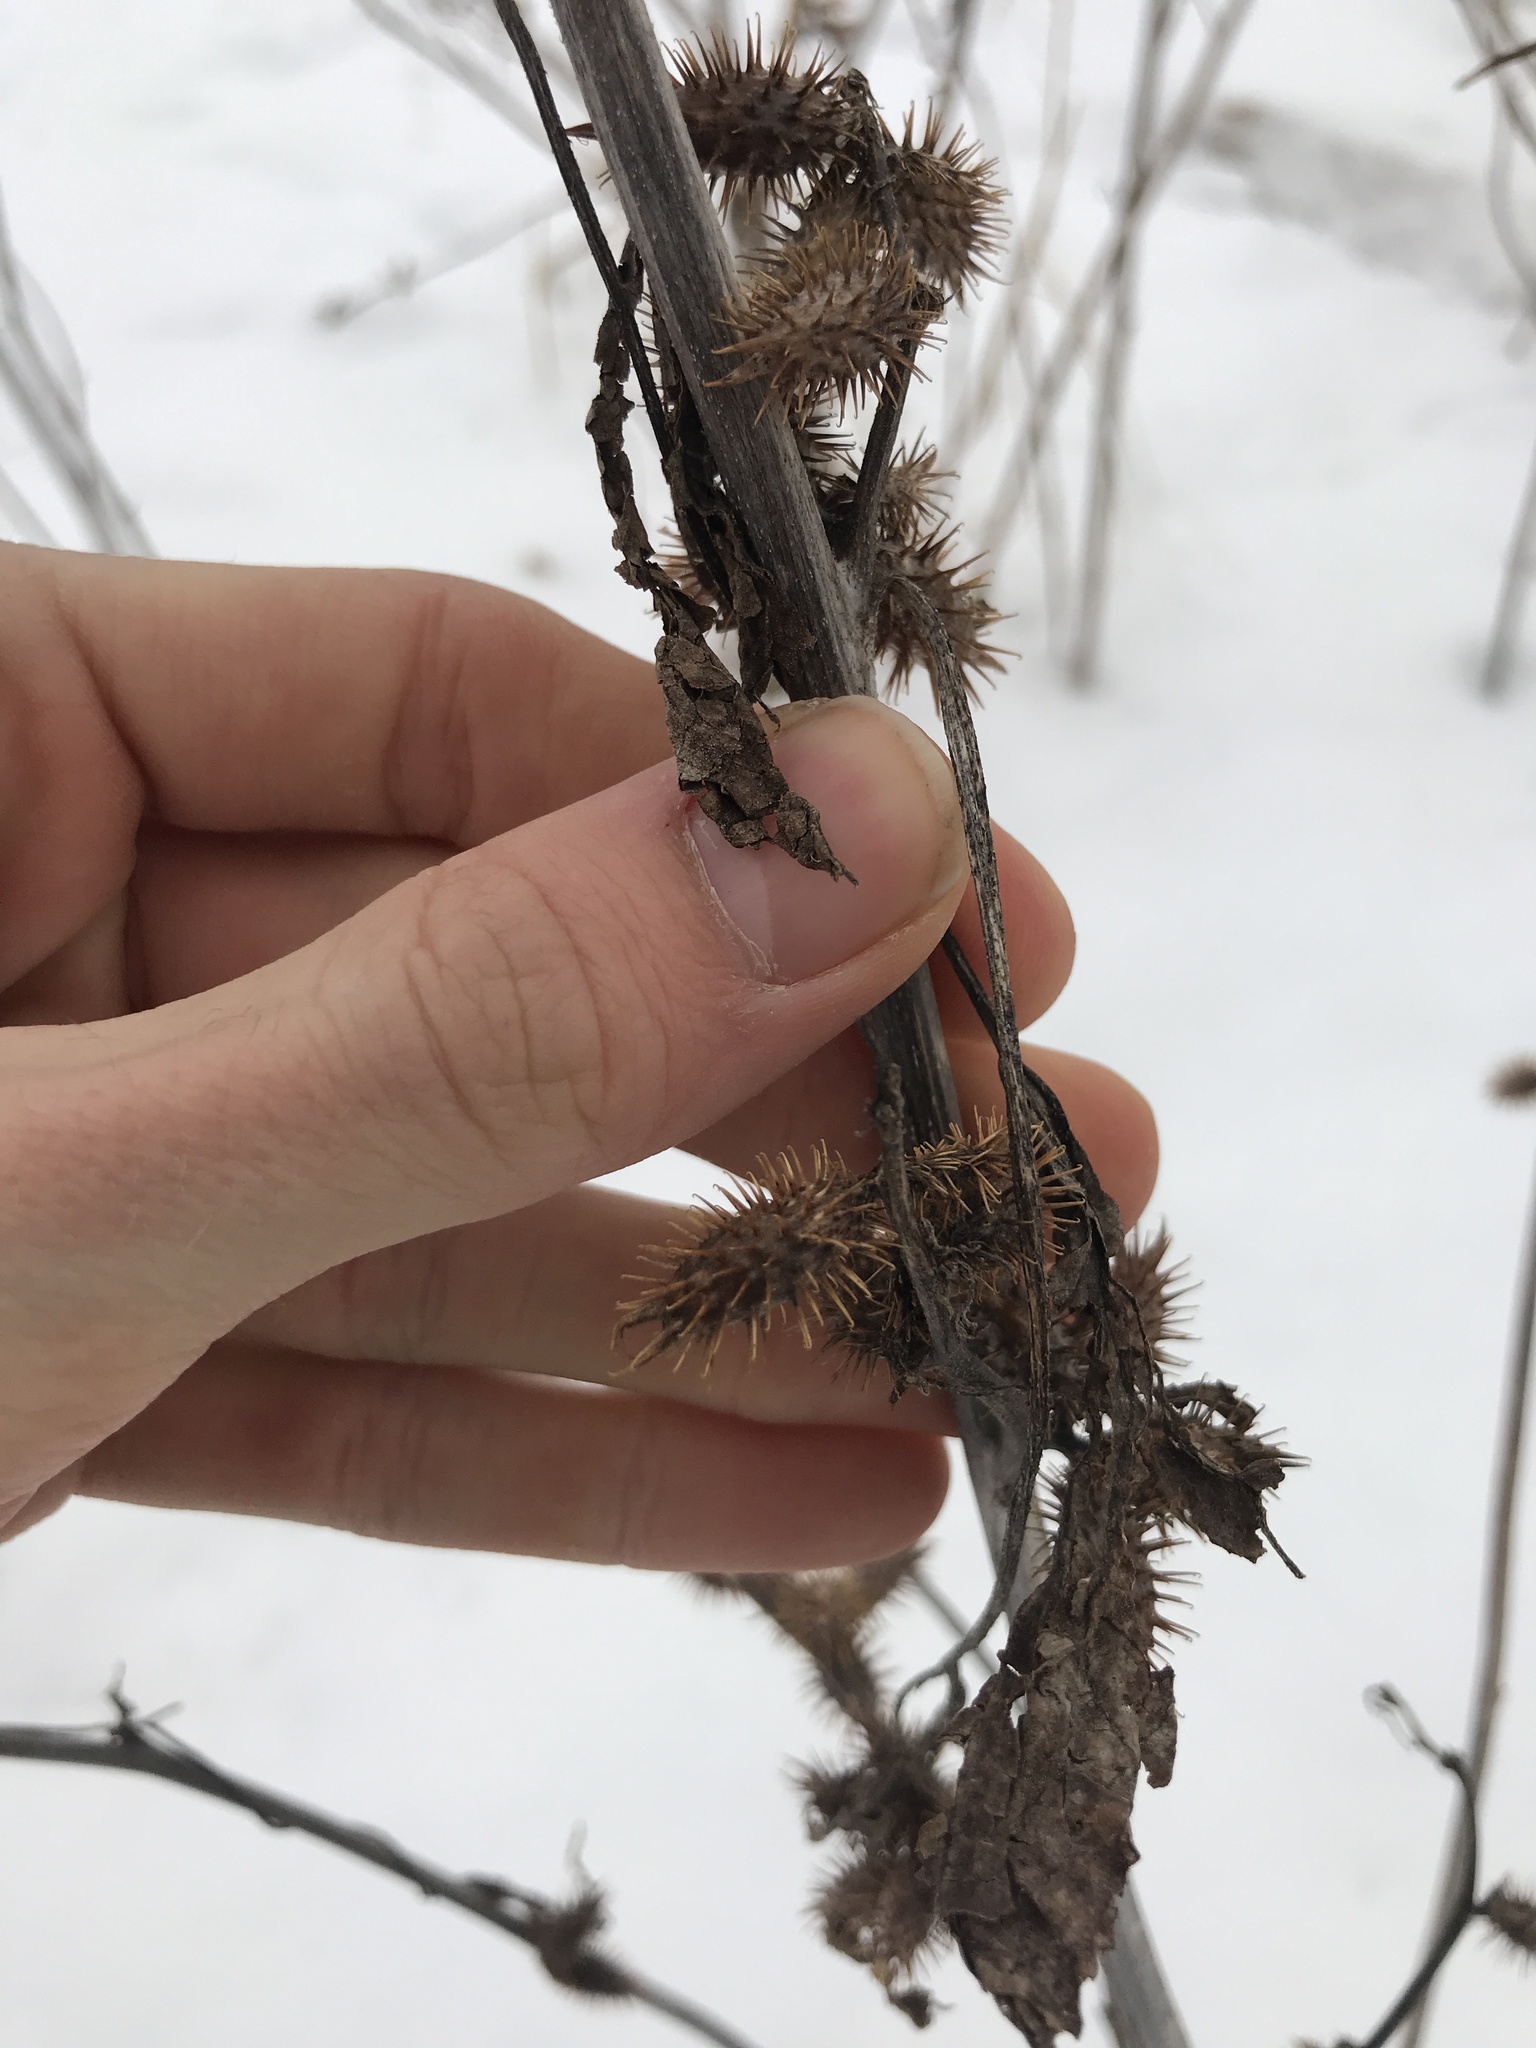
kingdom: Plantae
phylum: Tracheophyta
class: Magnoliopsida
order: Asterales
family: Asteraceae
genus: Xanthium
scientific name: Xanthium strumarium
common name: Rough cocklebur
